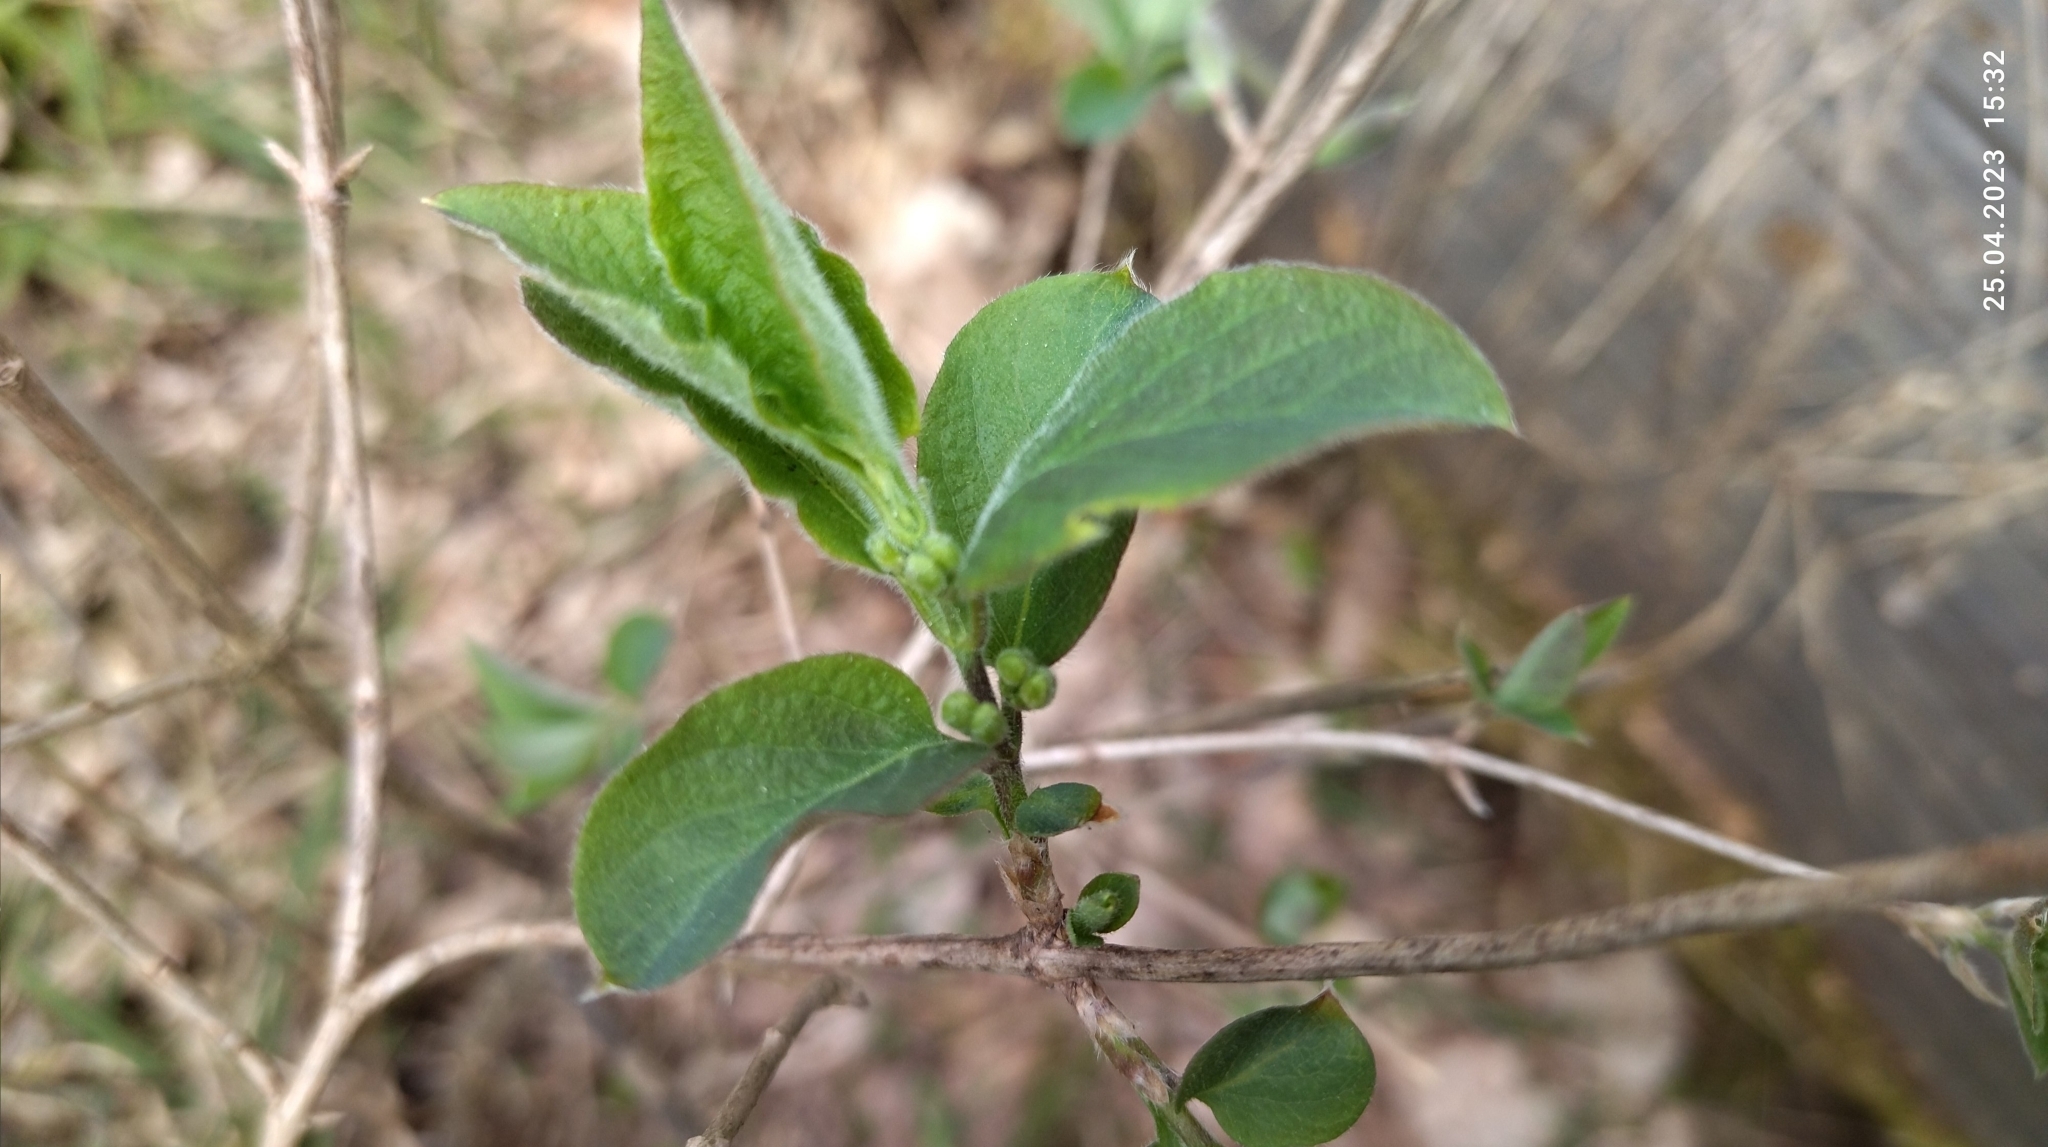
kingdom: Plantae
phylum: Tracheophyta
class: Magnoliopsida
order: Dipsacales
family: Caprifoliaceae
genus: Lonicera
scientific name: Lonicera xylosteum
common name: Fly honeysuckle
